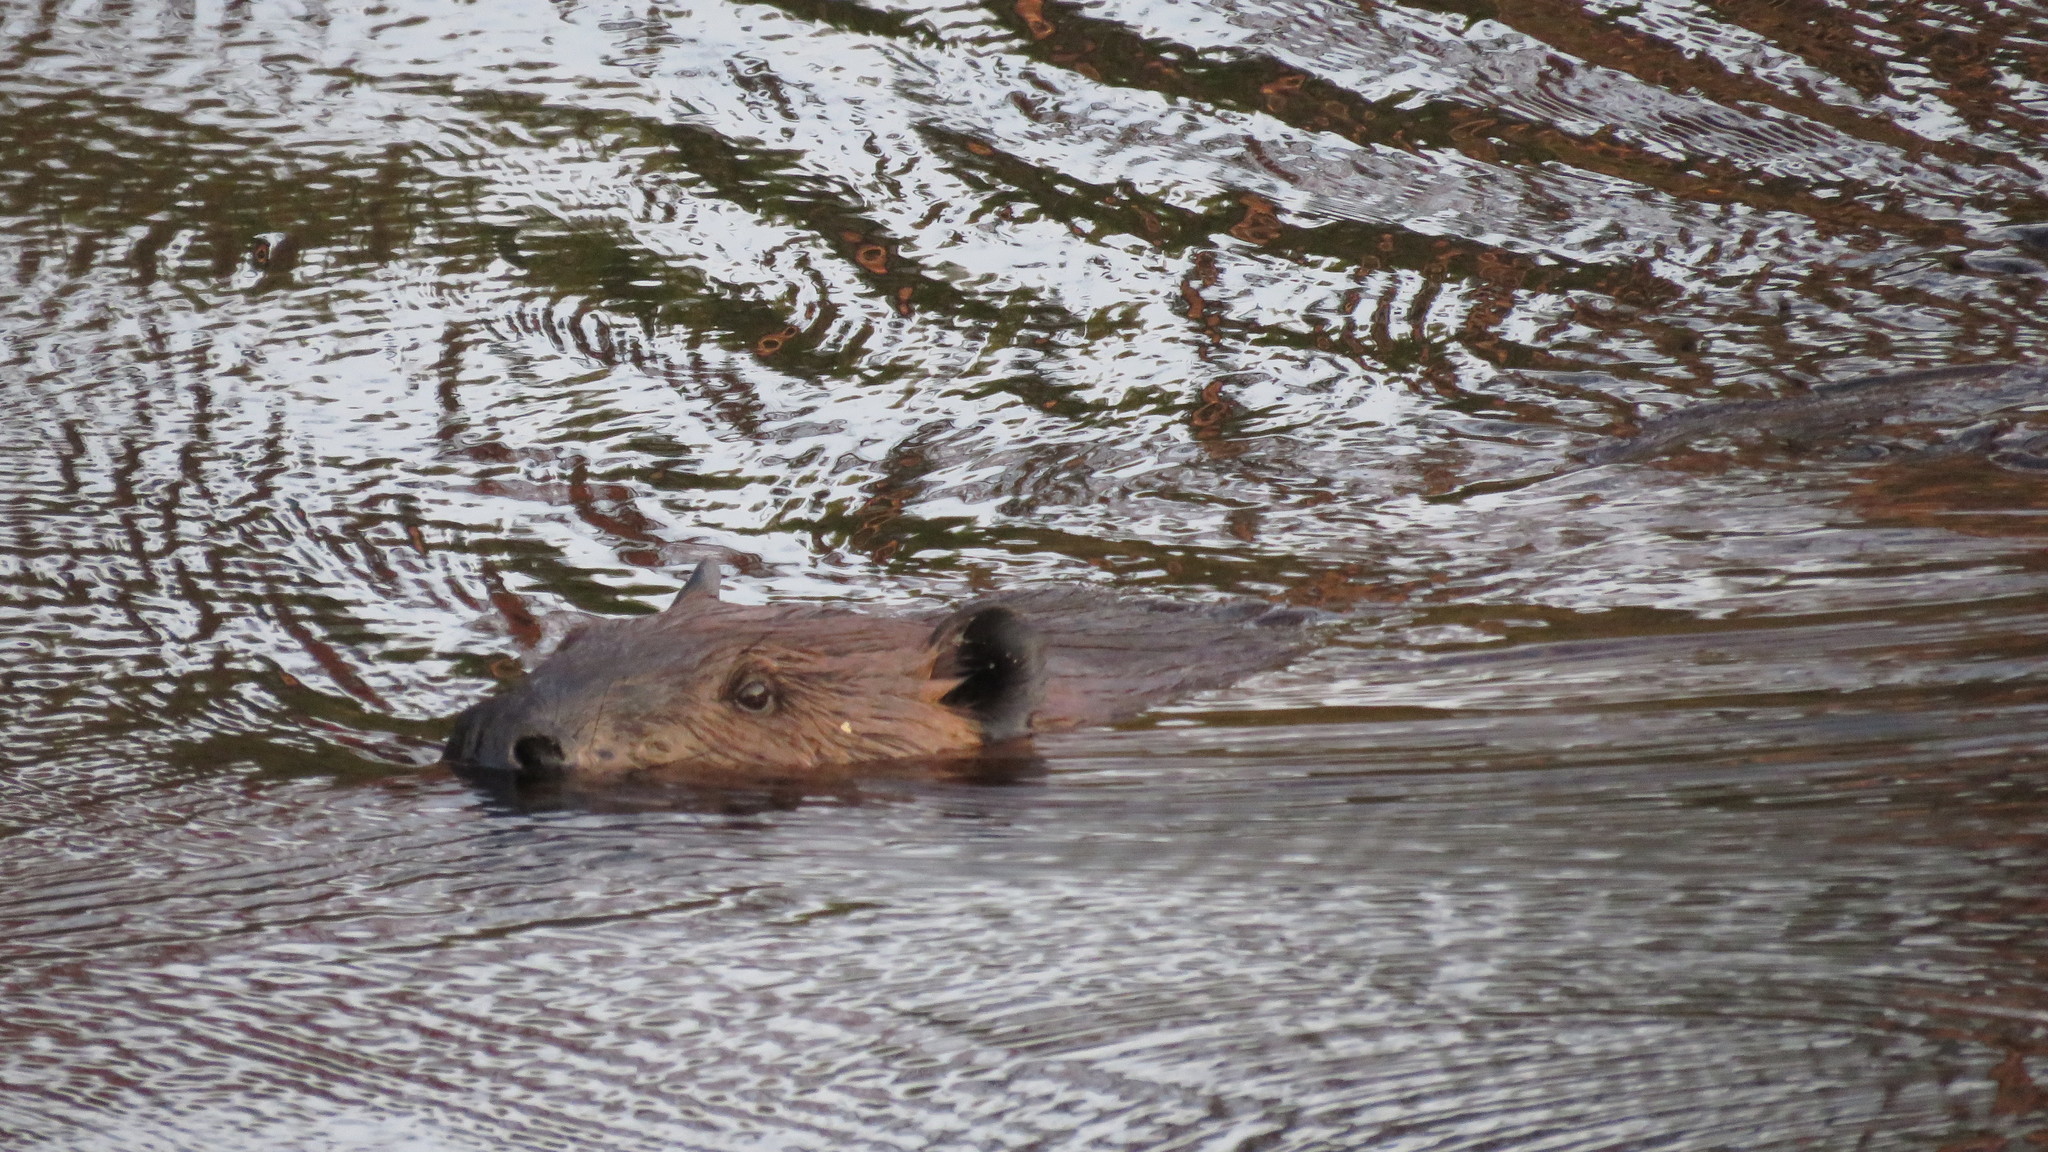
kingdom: Animalia
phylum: Chordata
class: Mammalia
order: Rodentia
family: Castoridae
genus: Castor
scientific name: Castor canadensis
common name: American beaver
